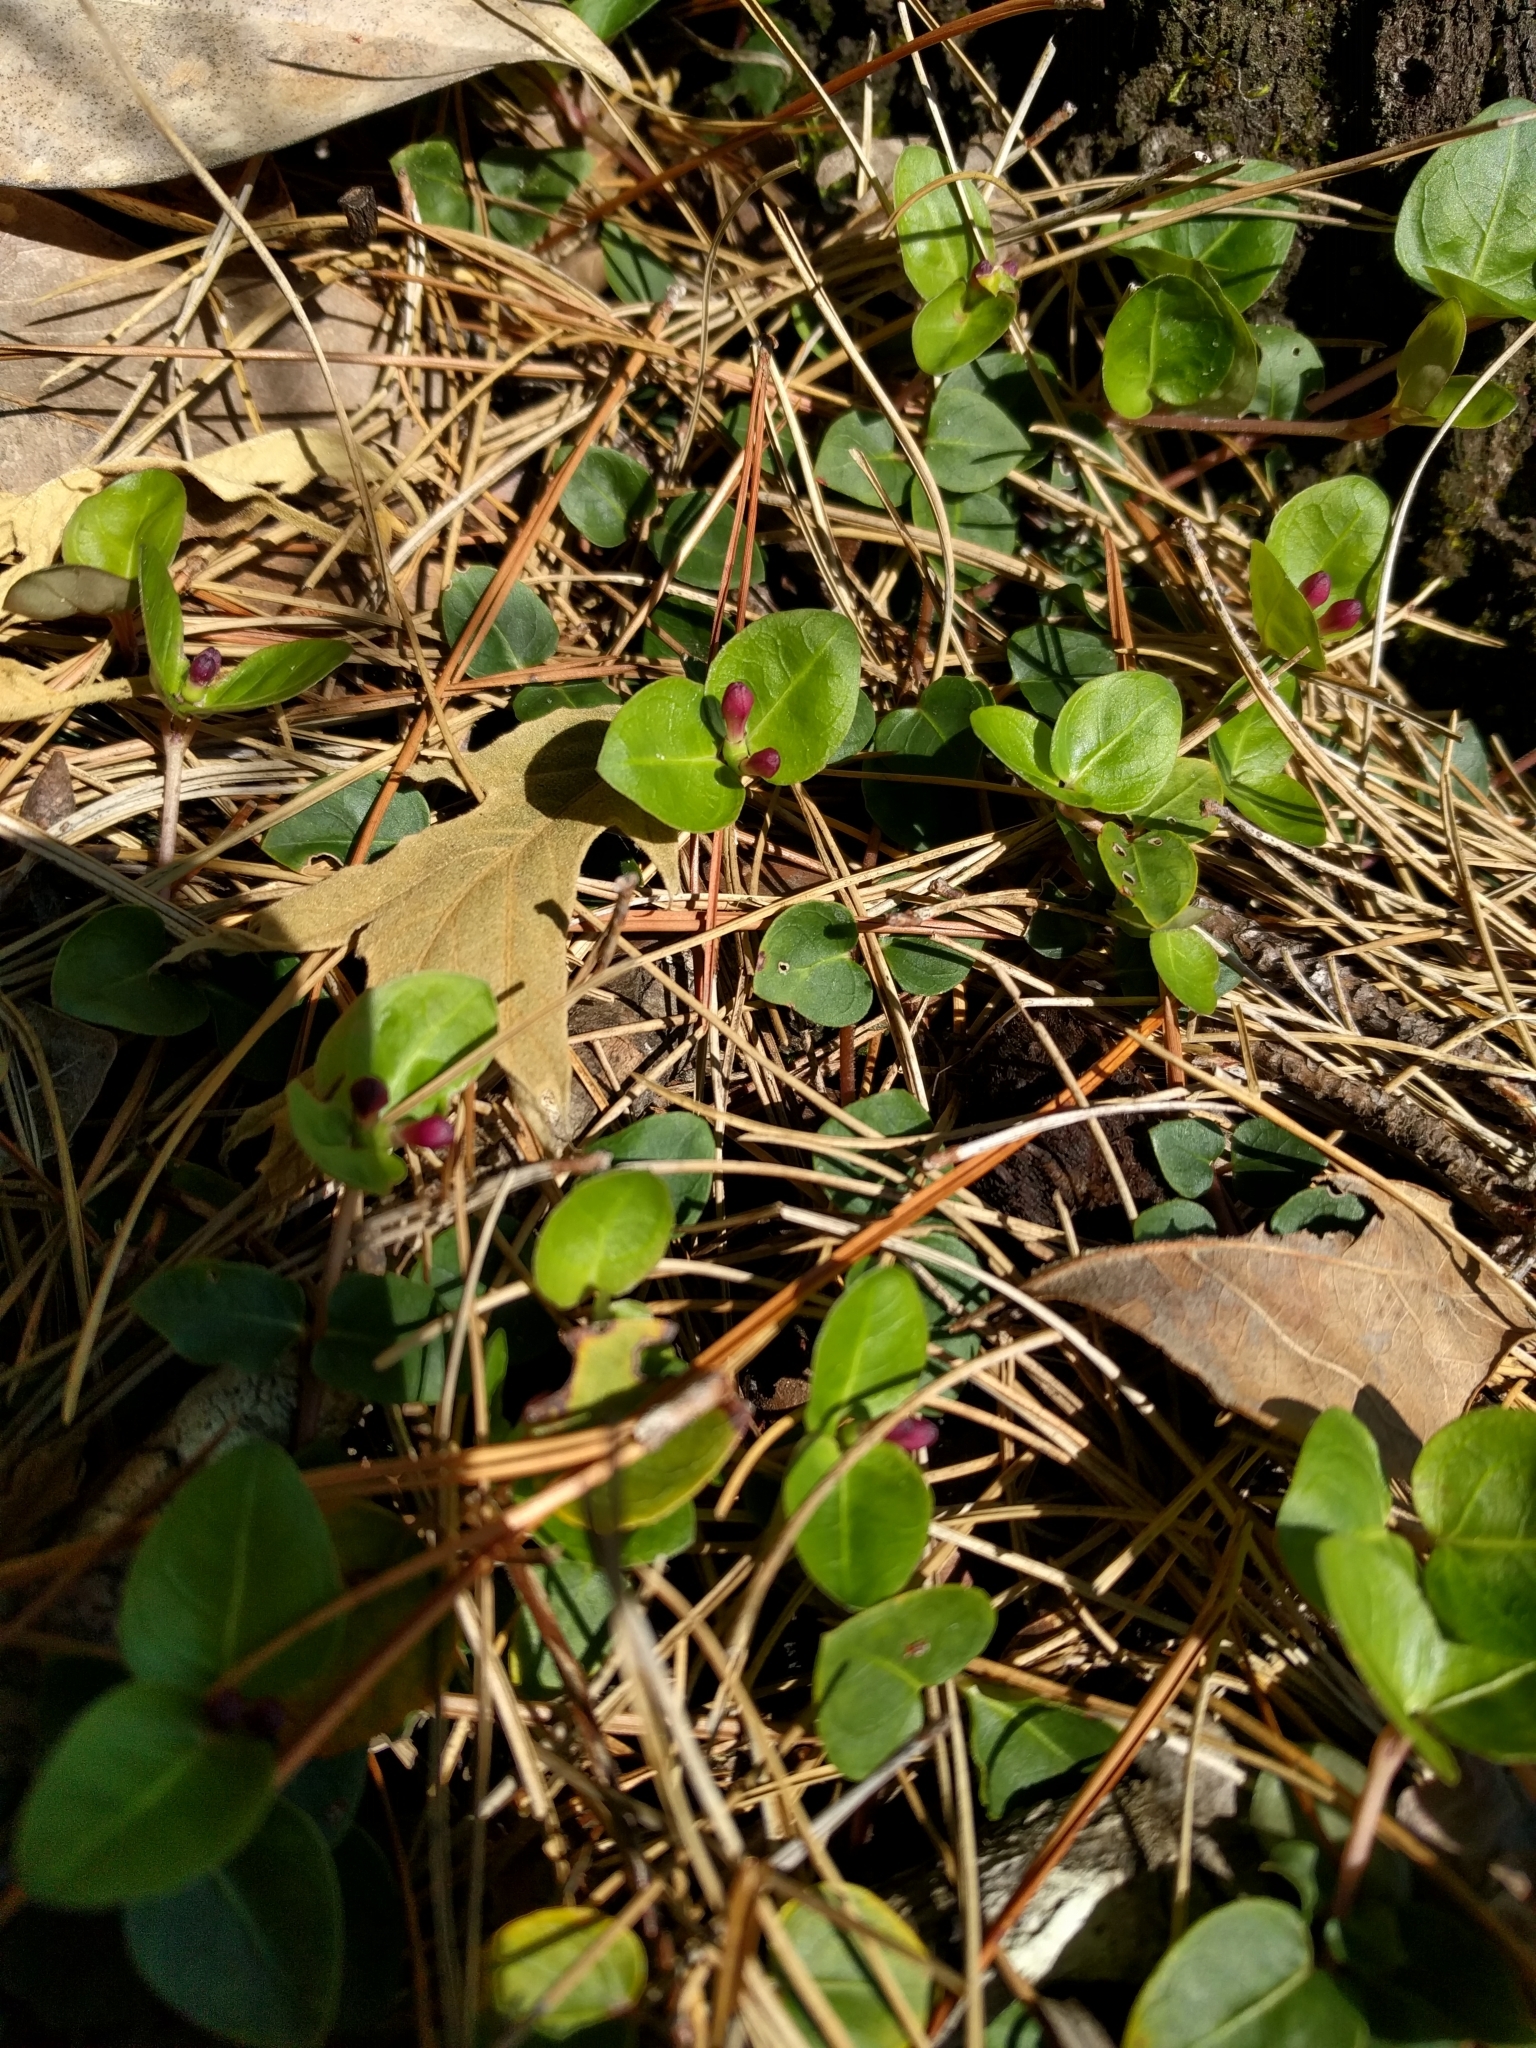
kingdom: Plantae
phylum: Tracheophyta
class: Magnoliopsida
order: Gentianales
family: Rubiaceae
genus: Mitchella
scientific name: Mitchella repens
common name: Partridge-berry
